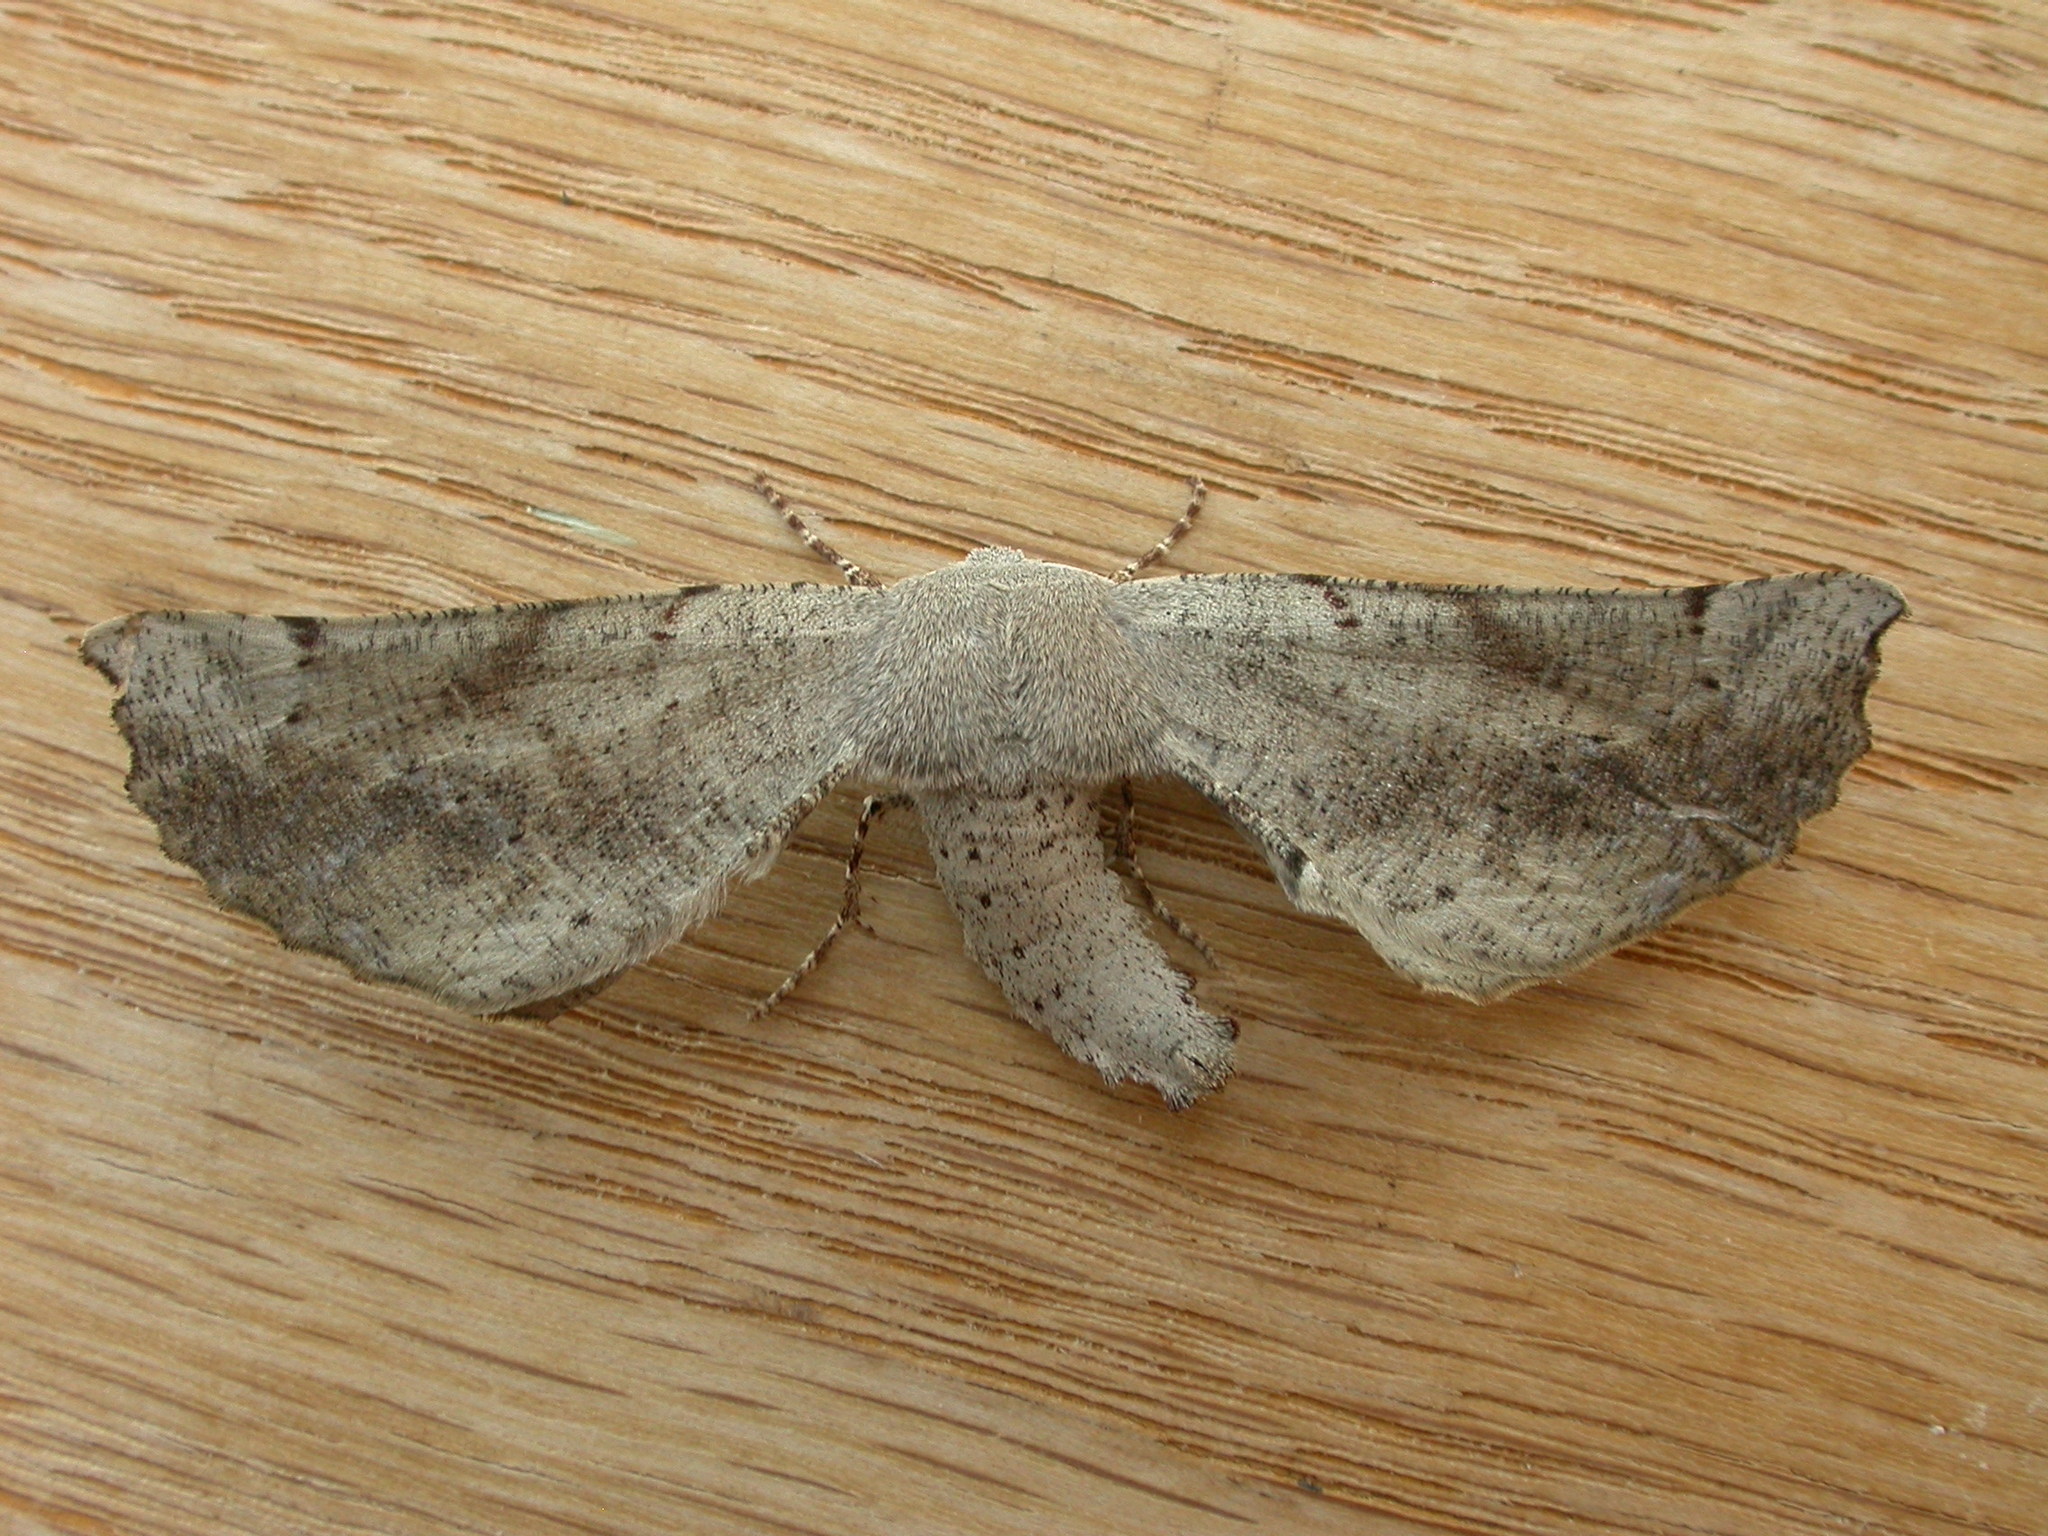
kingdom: Animalia
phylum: Arthropoda
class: Insecta
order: Lepidoptera
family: Geometridae
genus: Circopetes
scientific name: Circopetes obtusata
